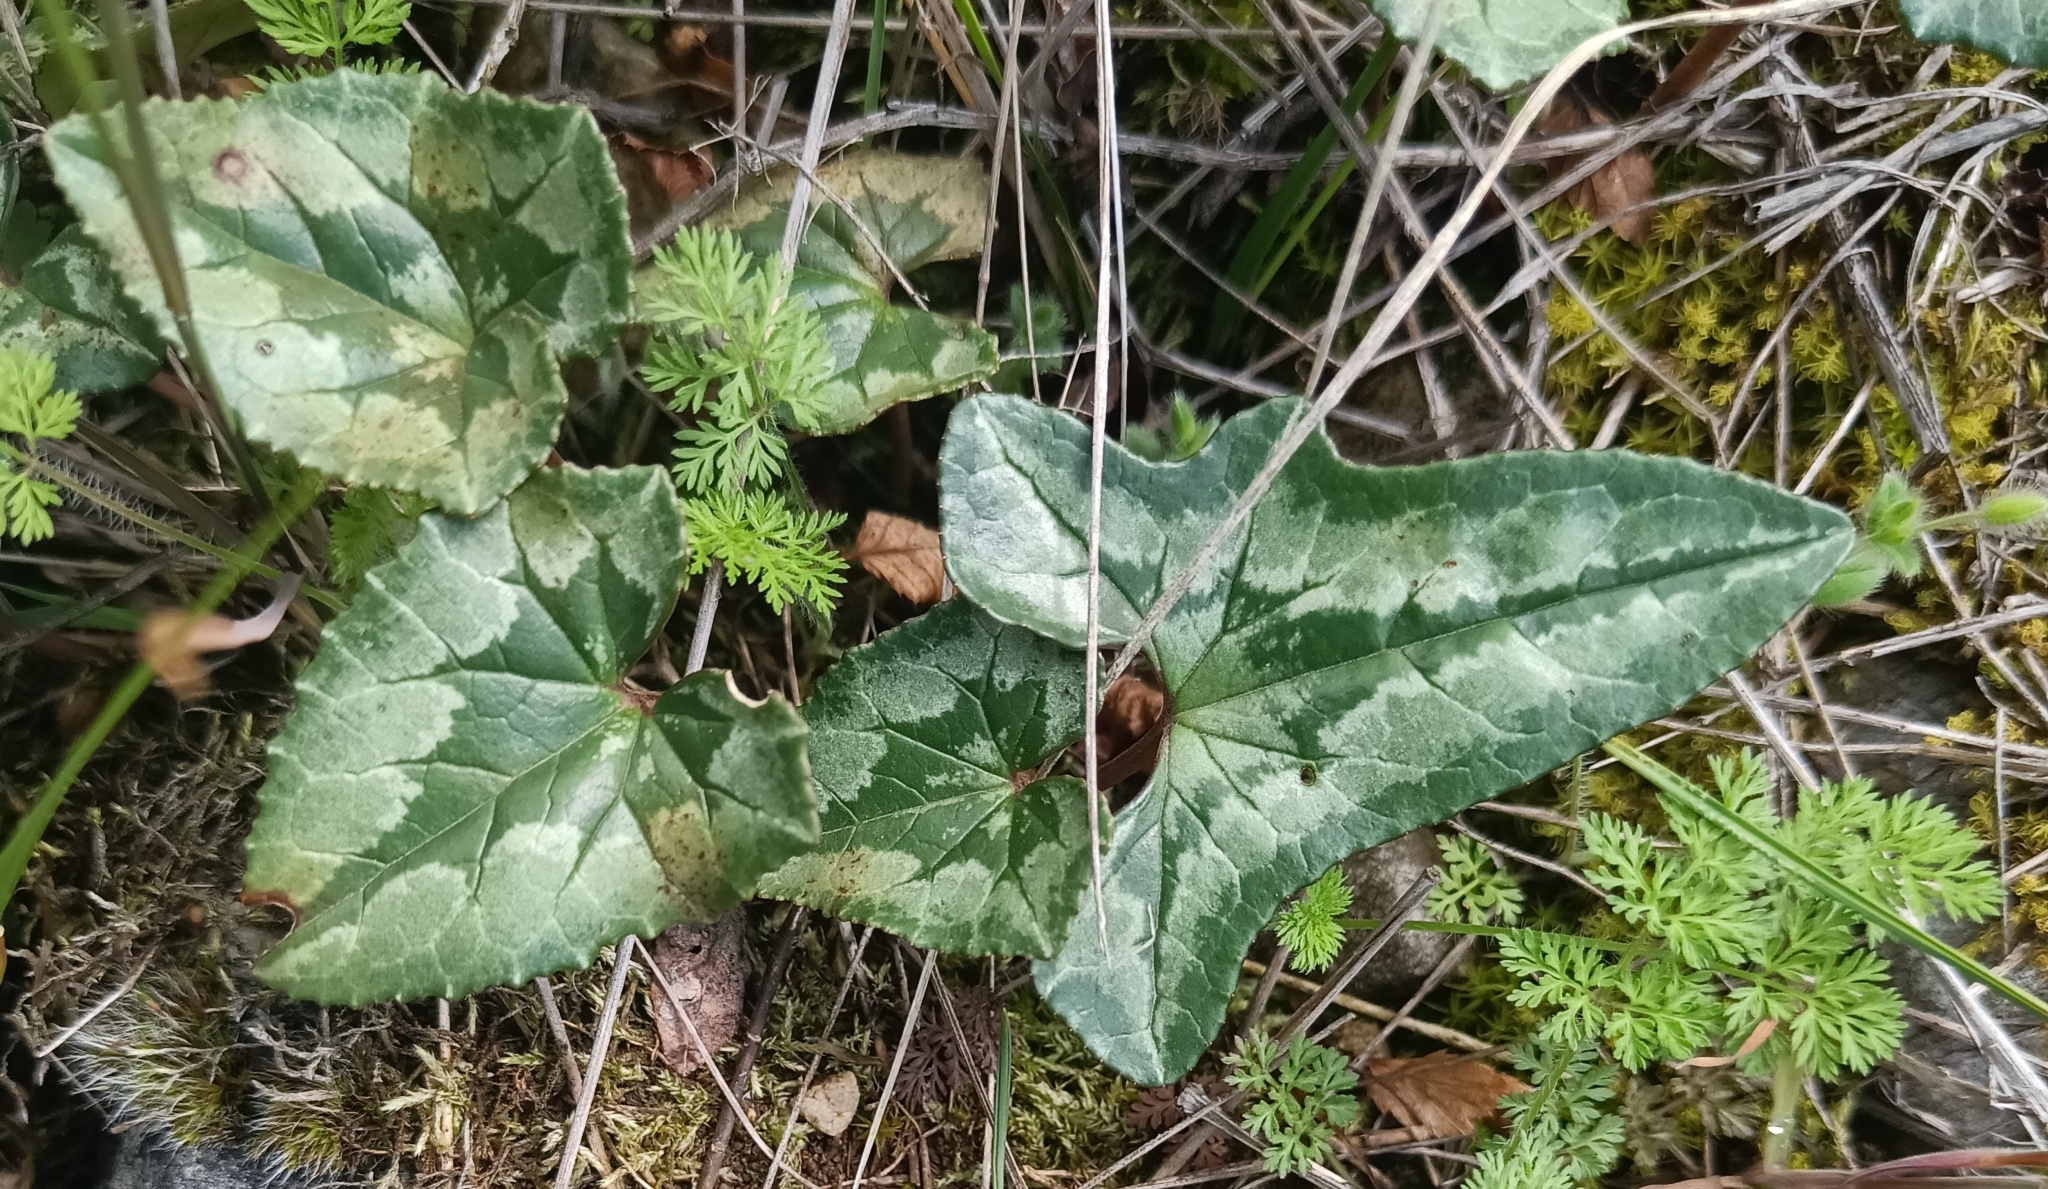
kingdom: Plantae
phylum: Tracheophyta
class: Magnoliopsida
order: Ericales
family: Primulaceae
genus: Cyclamen
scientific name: Cyclamen hederifolium
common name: Sowbread
